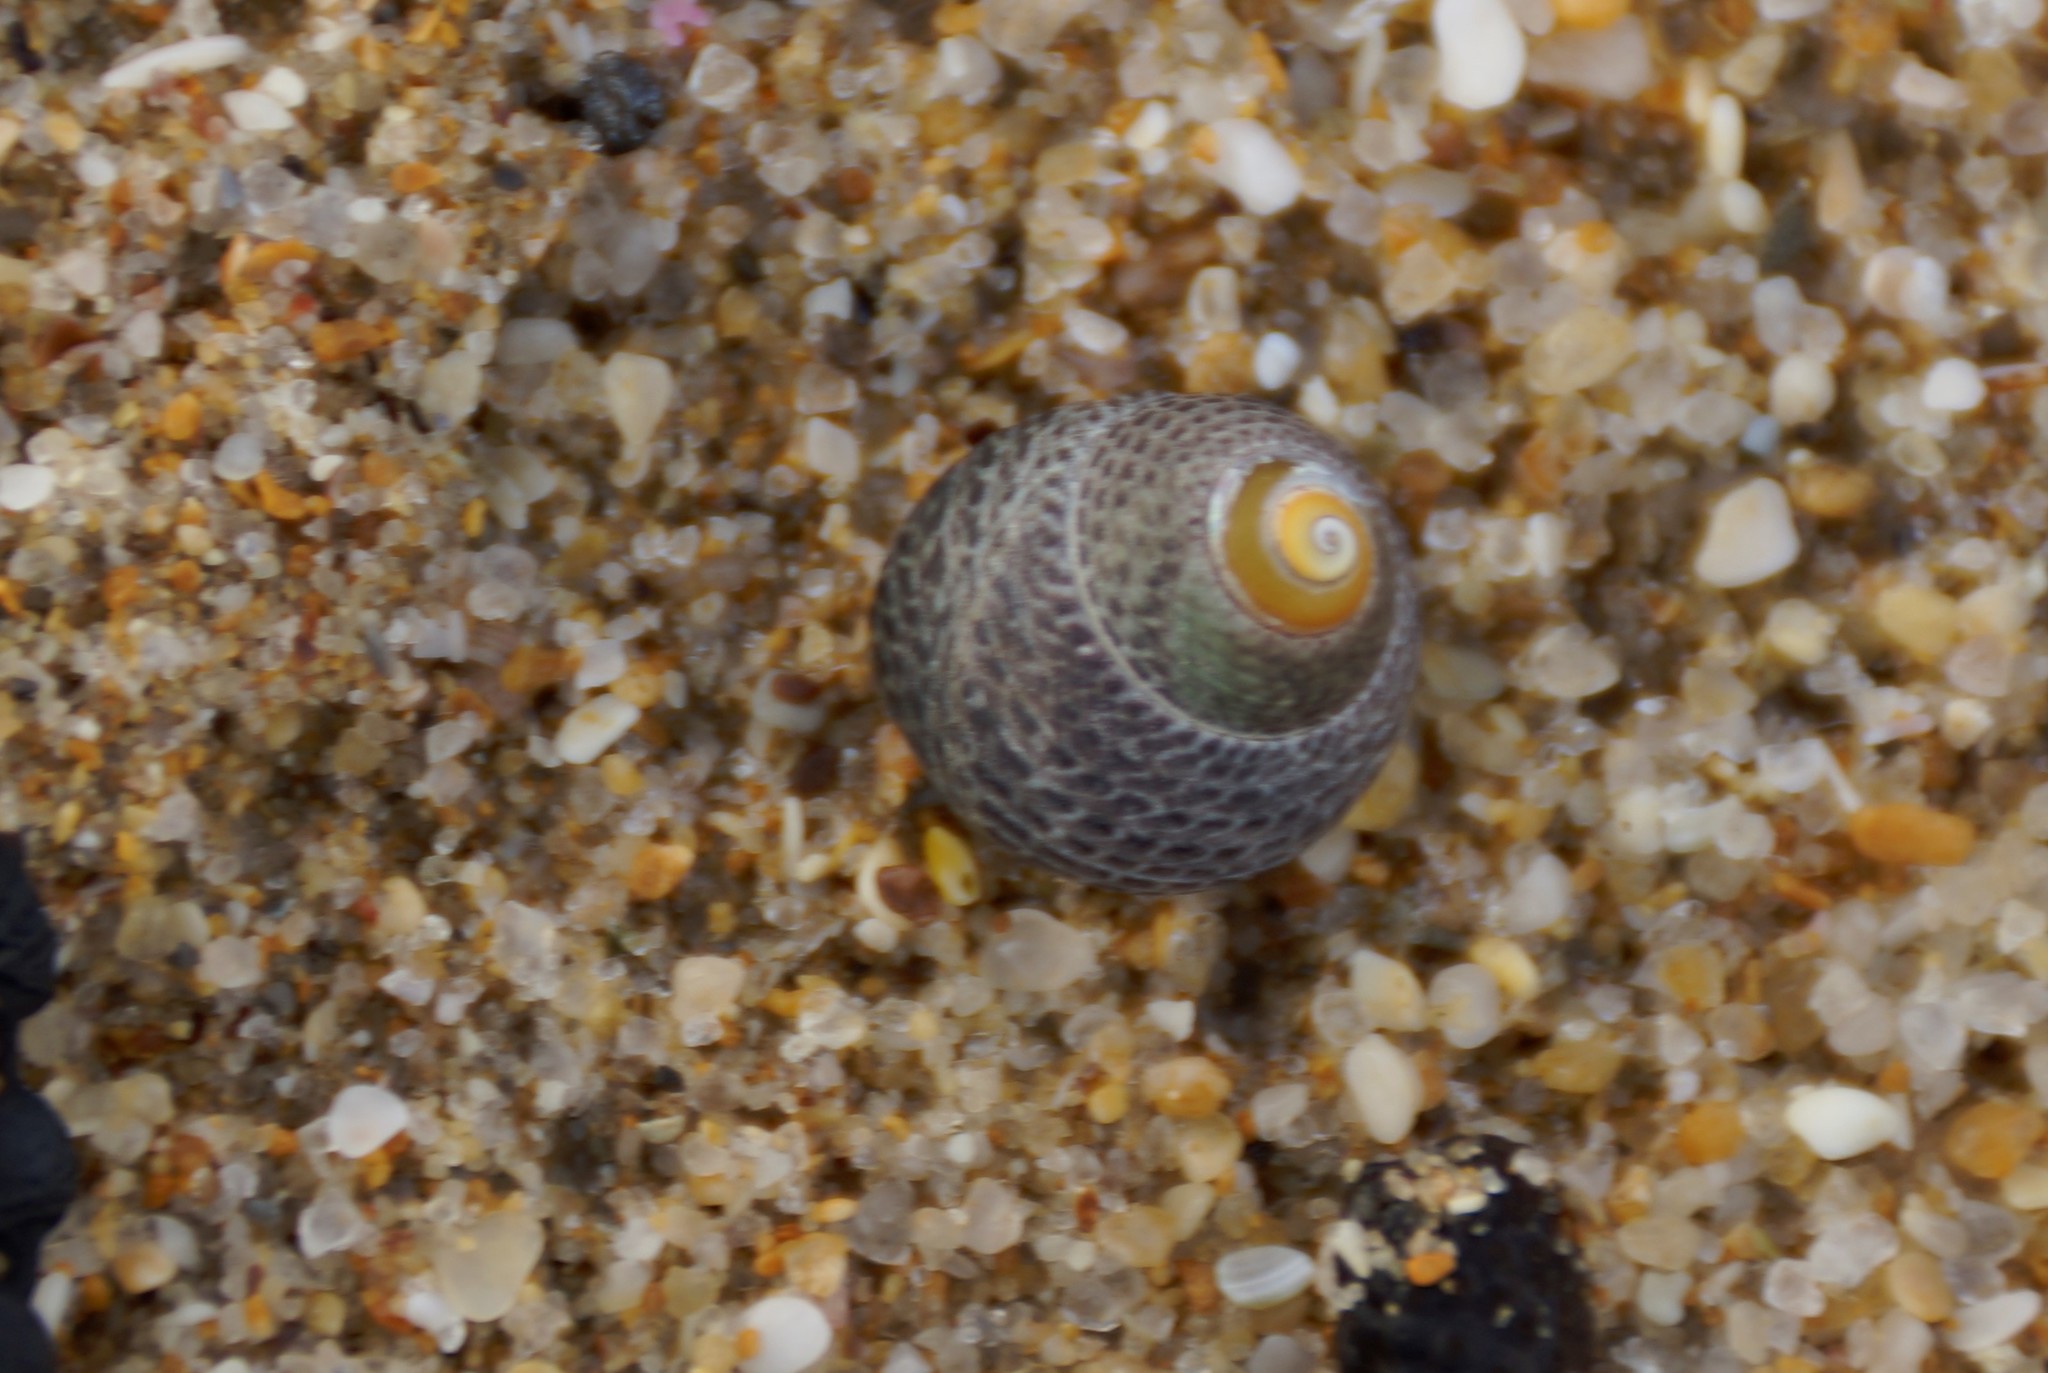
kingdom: Animalia
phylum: Mollusca
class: Gastropoda
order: Trochida
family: Trochidae
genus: Chlorodiloma
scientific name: Chlorodiloma adelaidae
